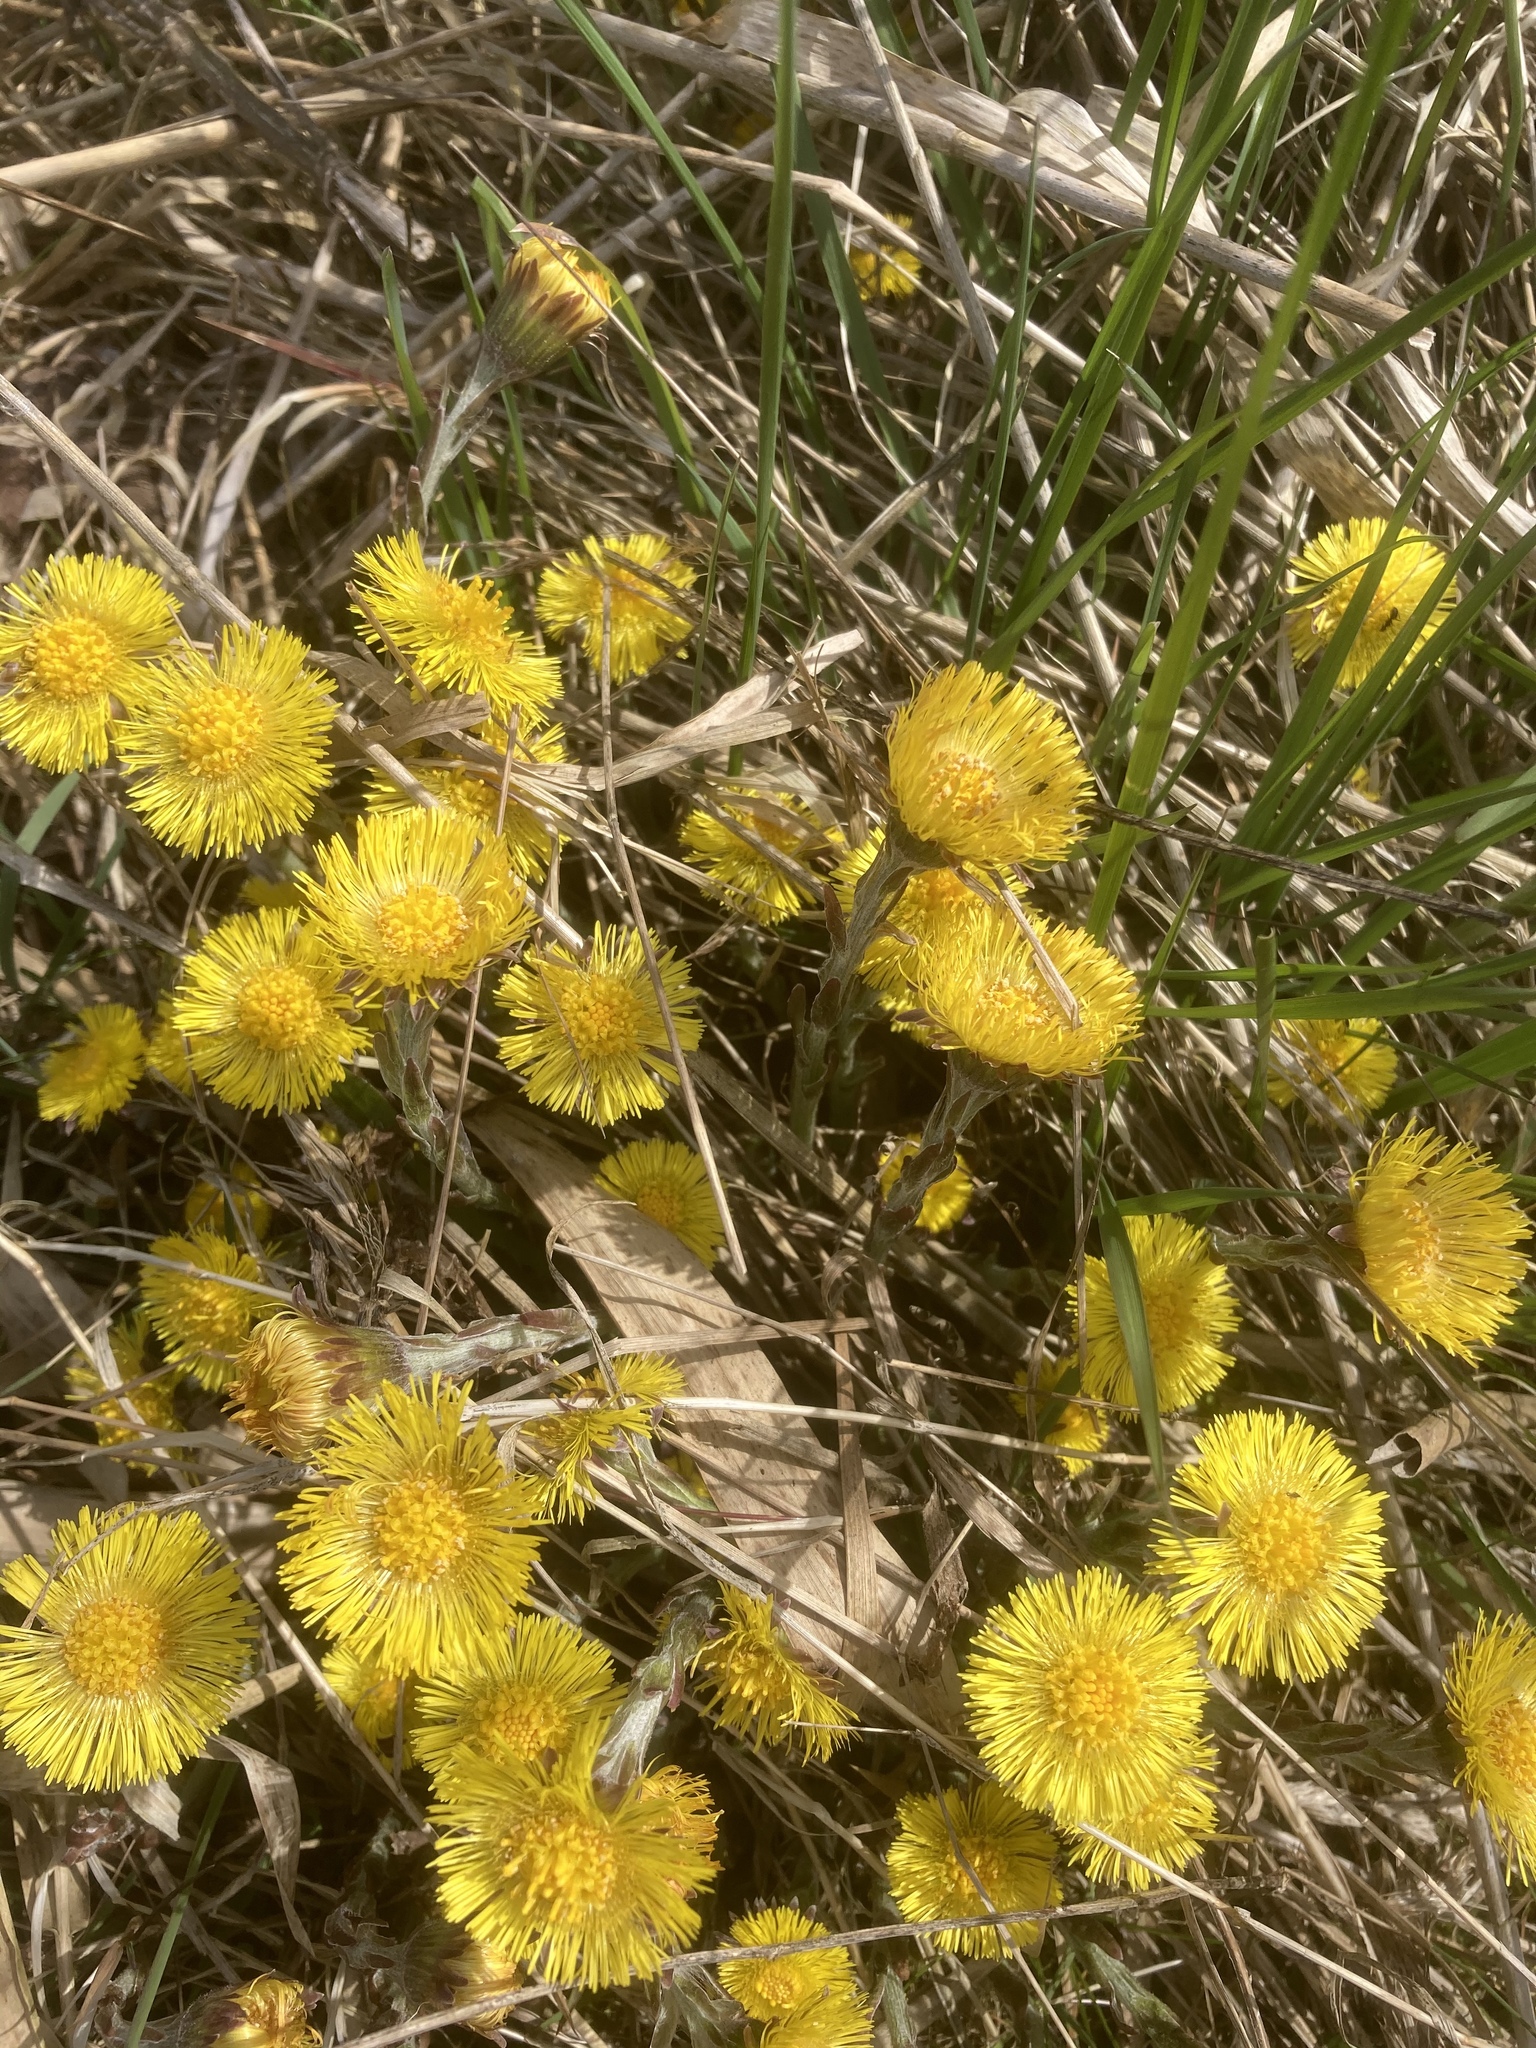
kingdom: Plantae
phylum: Tracheophyta
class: Magnoliopsida
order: Asterales
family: Asteraceae
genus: Tussilago
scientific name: Tussilago farfara
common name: Coltsfoot
